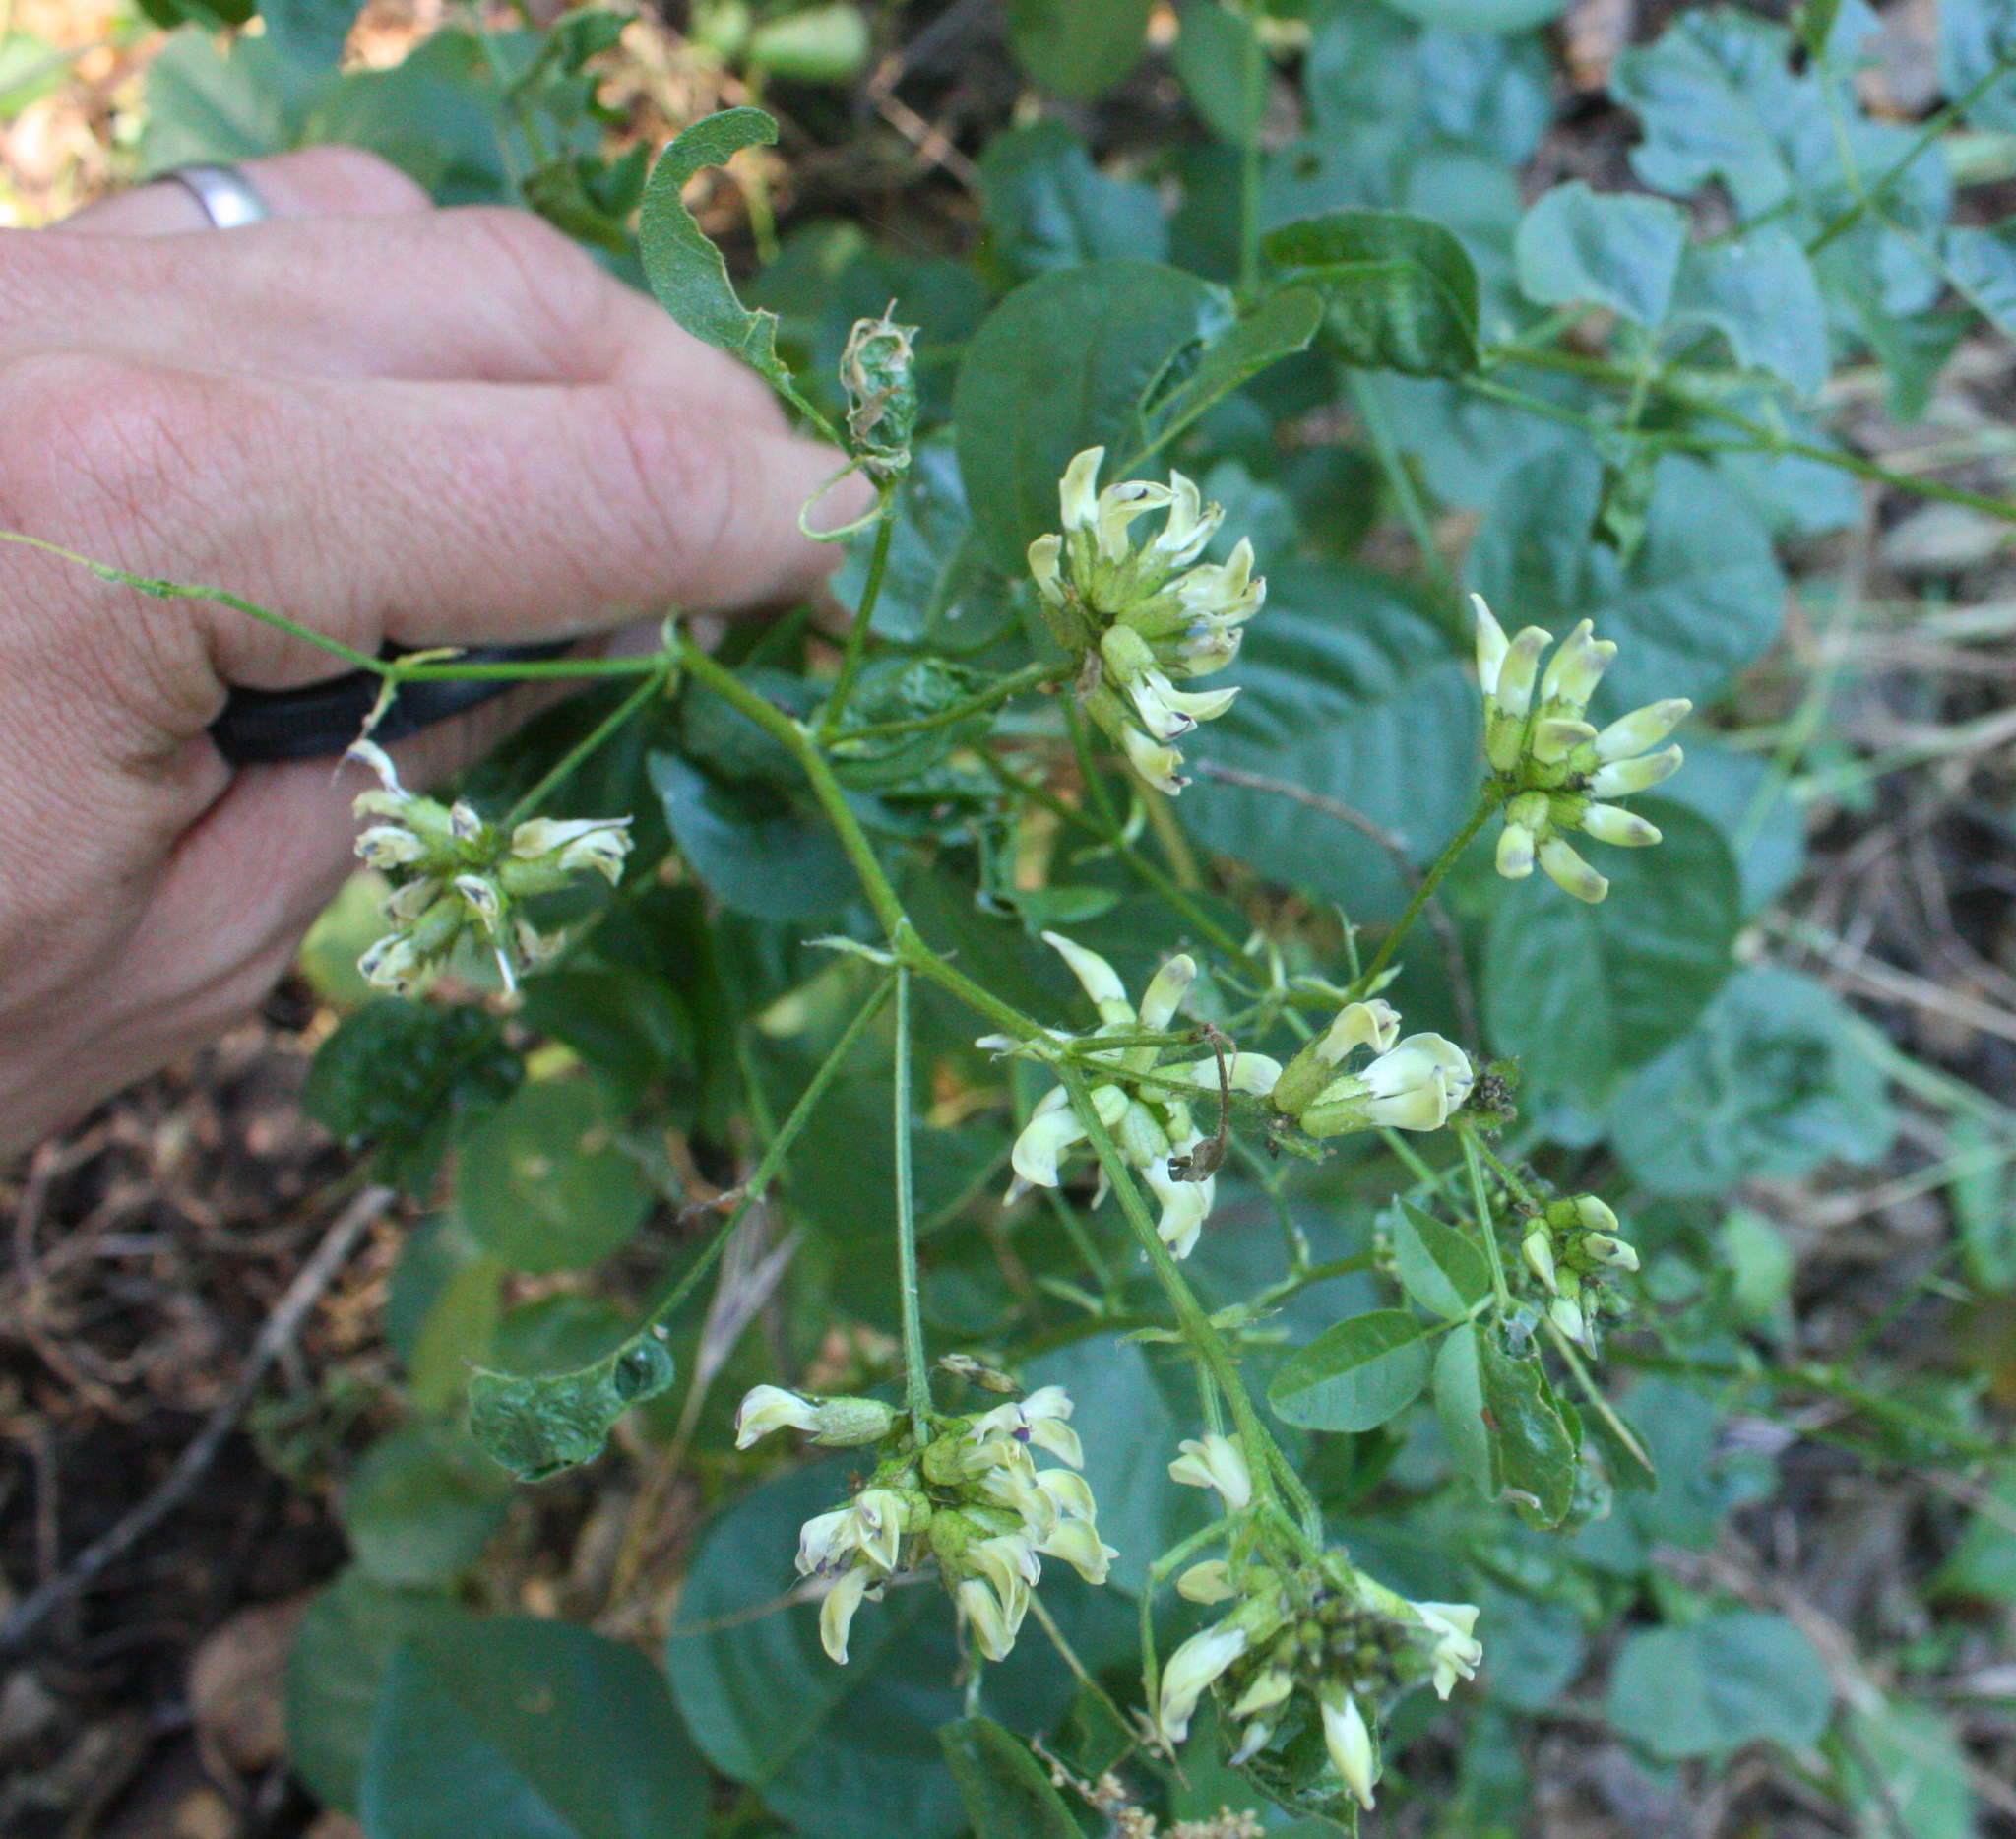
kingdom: Plantae
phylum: Tracheophyta
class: Magnoliopsida
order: Fabales
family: Fabaceae
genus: Rupertia
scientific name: Rupertia physodes
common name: California-tea
